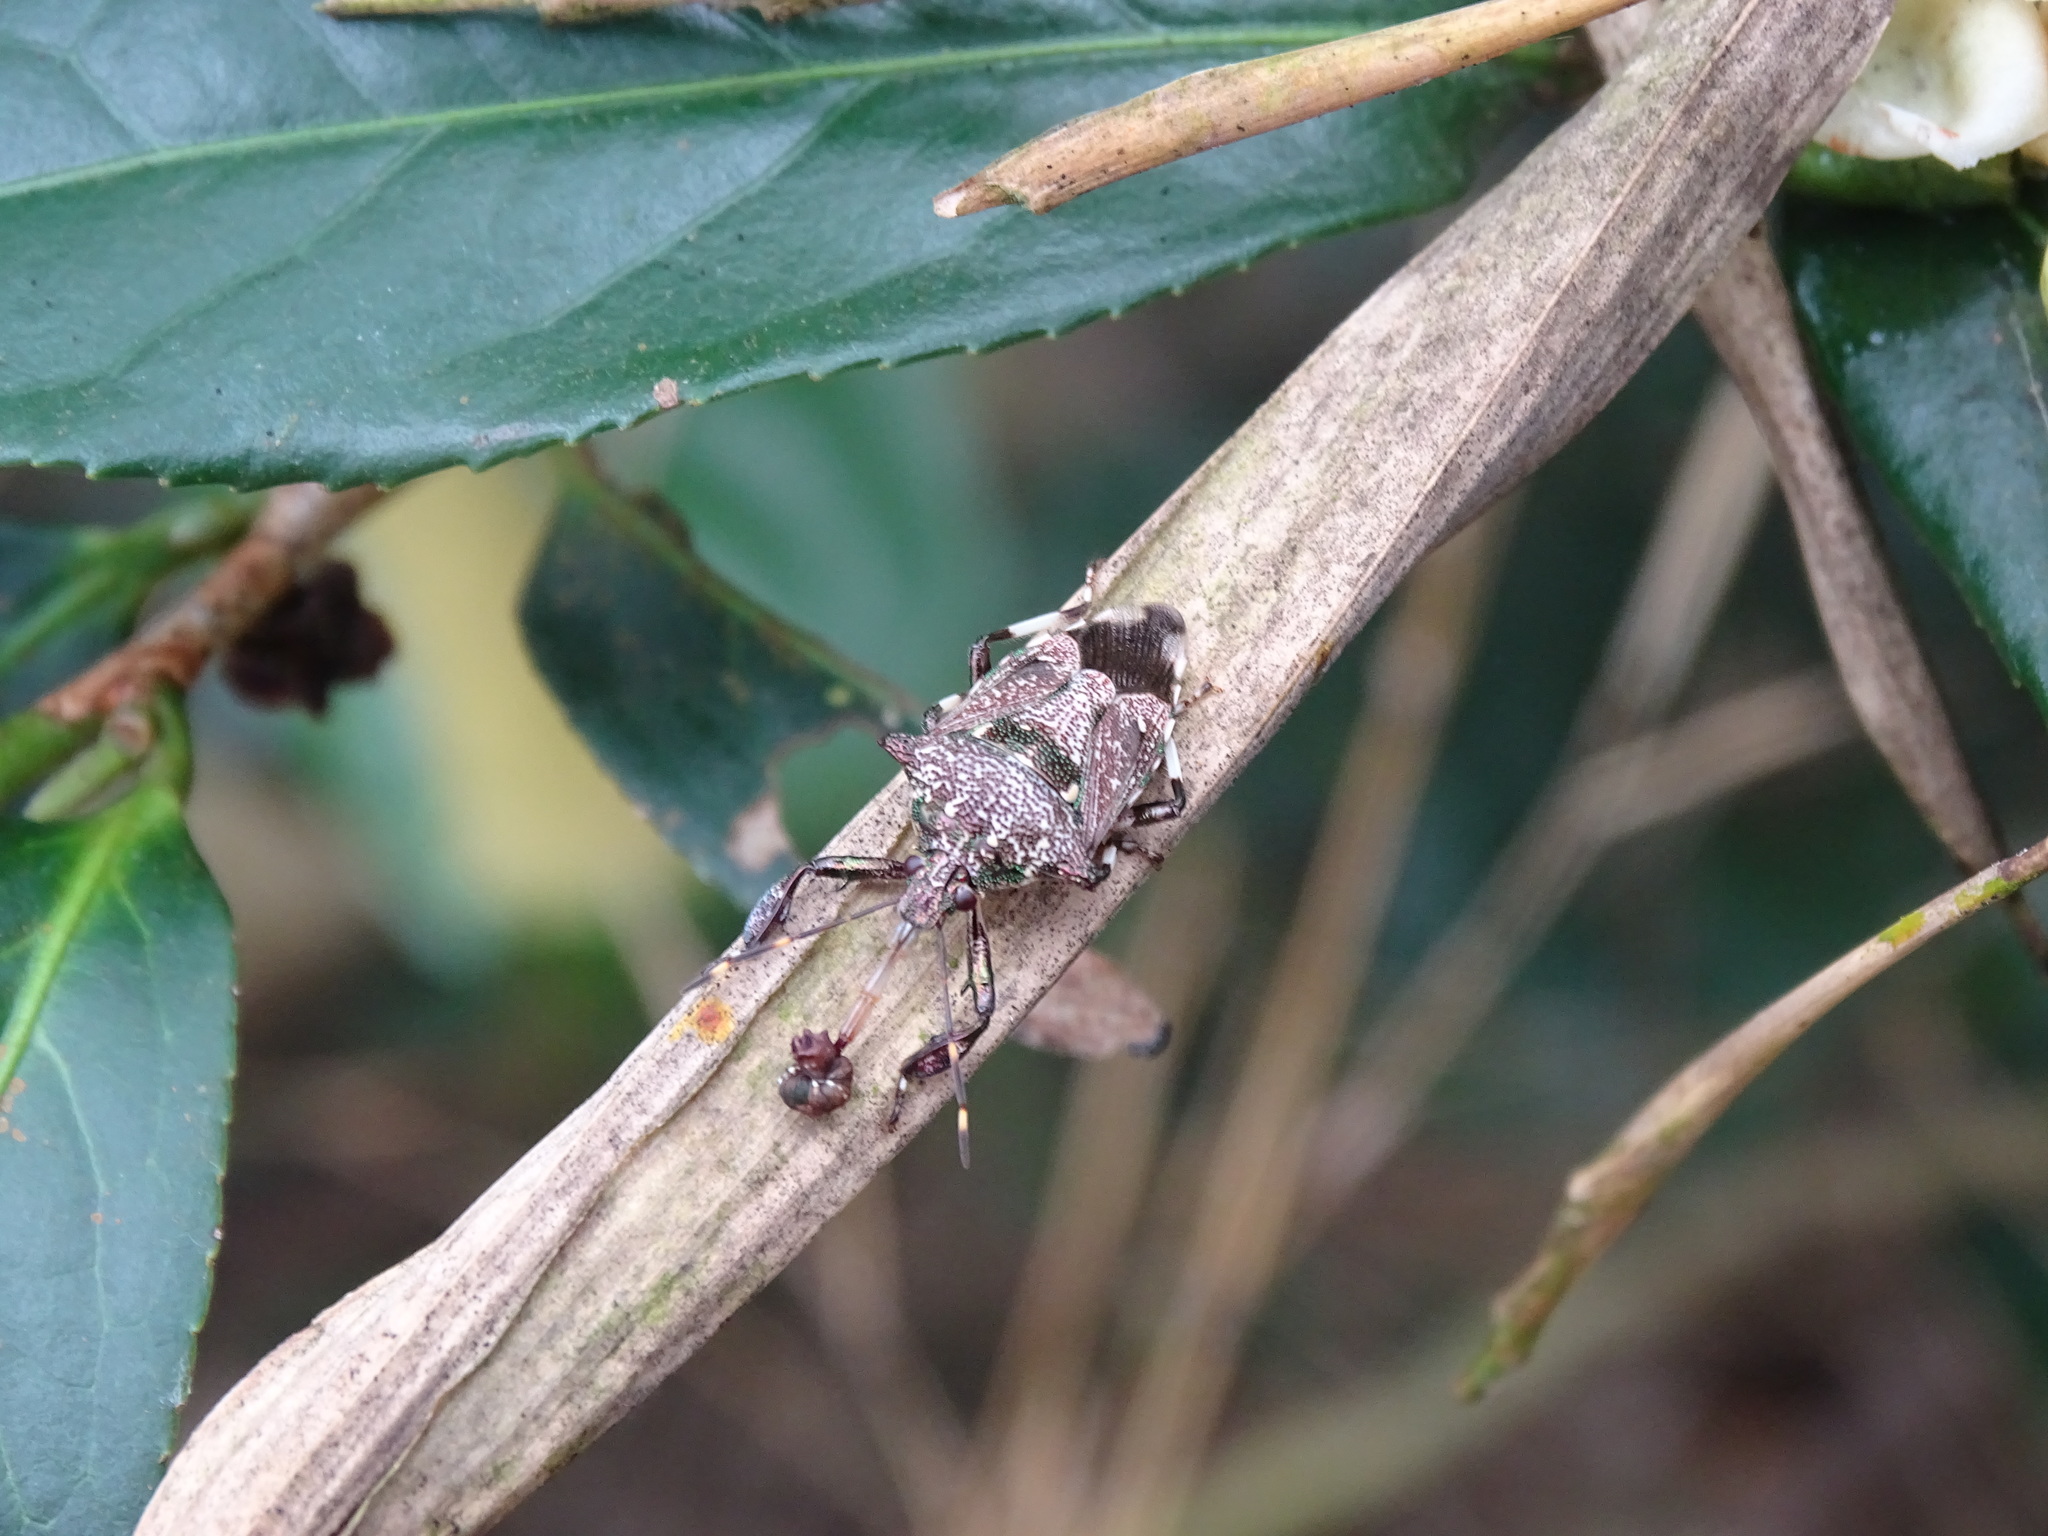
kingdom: Animalia
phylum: Arthropoda
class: Insecta
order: Hemiptera
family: Pentatomidae
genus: Eocanthecona
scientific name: Eocanthecona concinna
